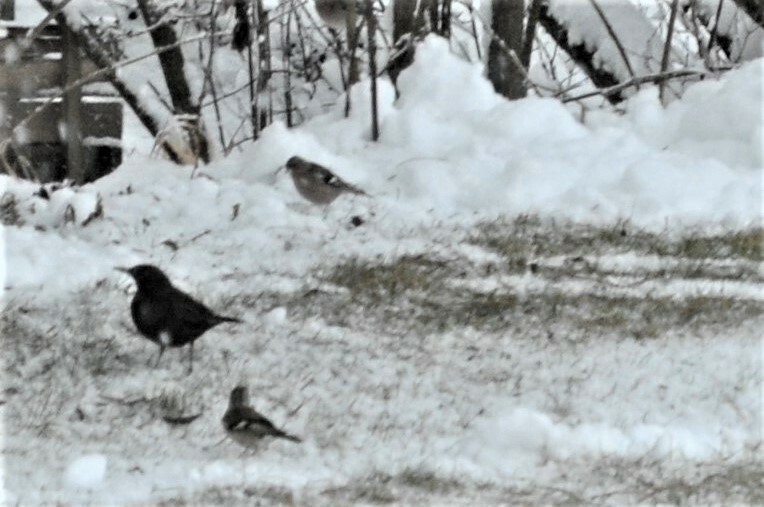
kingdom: Animalia
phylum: Chordata
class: Aves
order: Passeriformes
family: Turdidae
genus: Turdus
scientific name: Turdus merula
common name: Common blackbird
